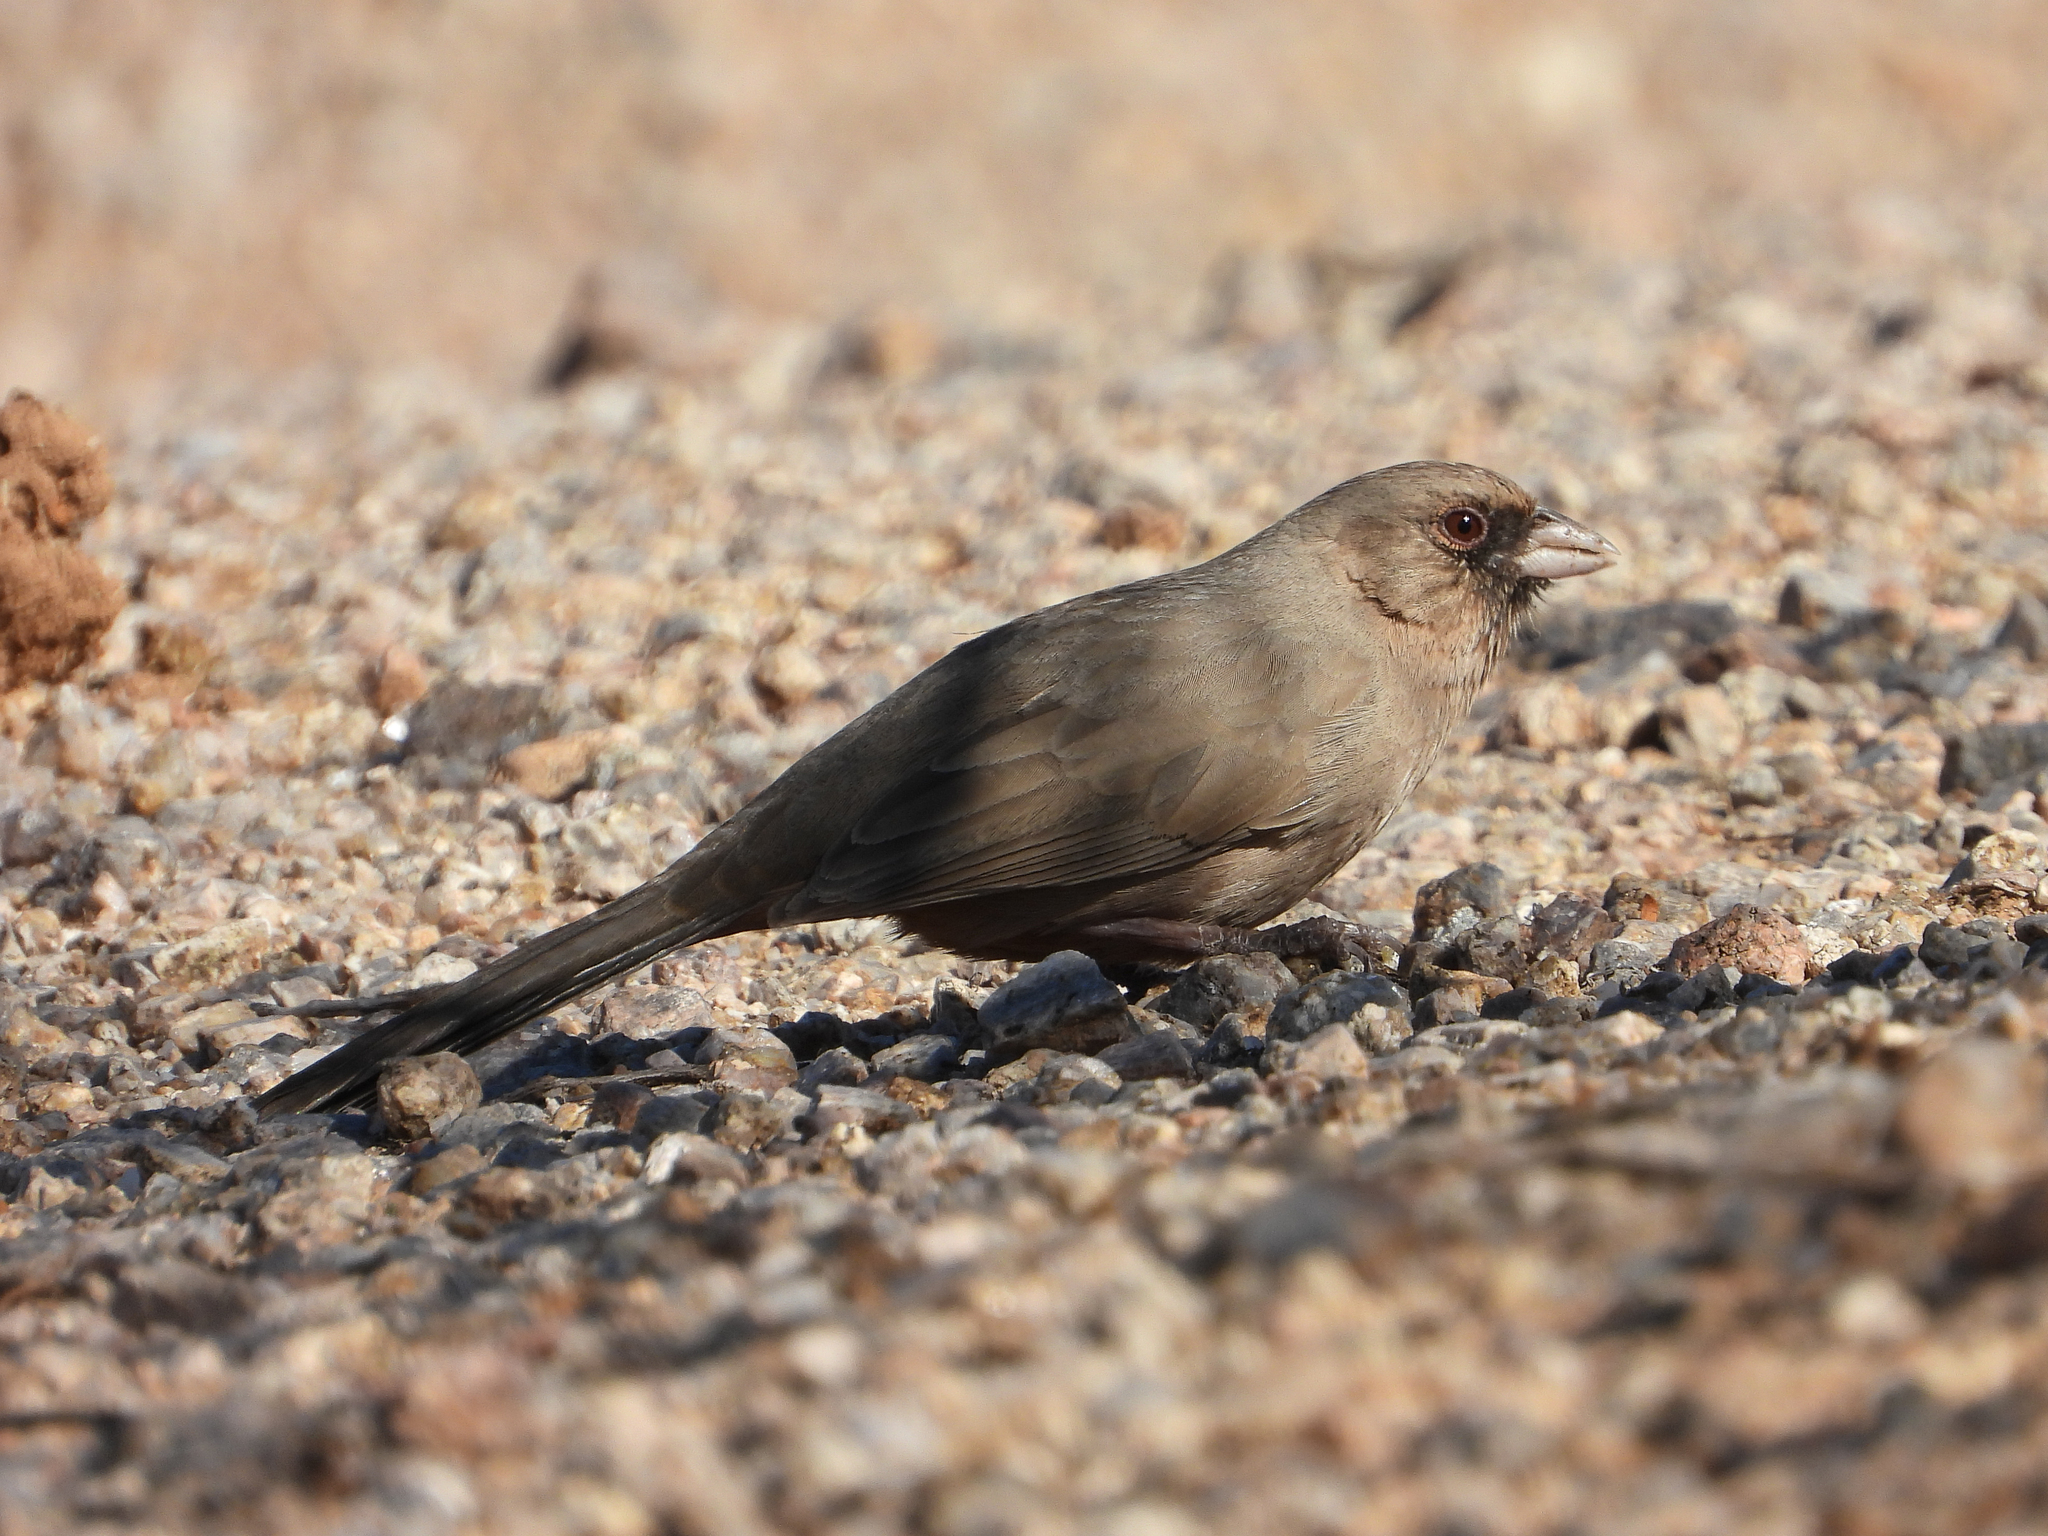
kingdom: Animalia
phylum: Chordata
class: Aves
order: Passeriformes
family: Passerellidae
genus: Melozone
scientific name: Melozone aberti
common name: Abert's towhee
